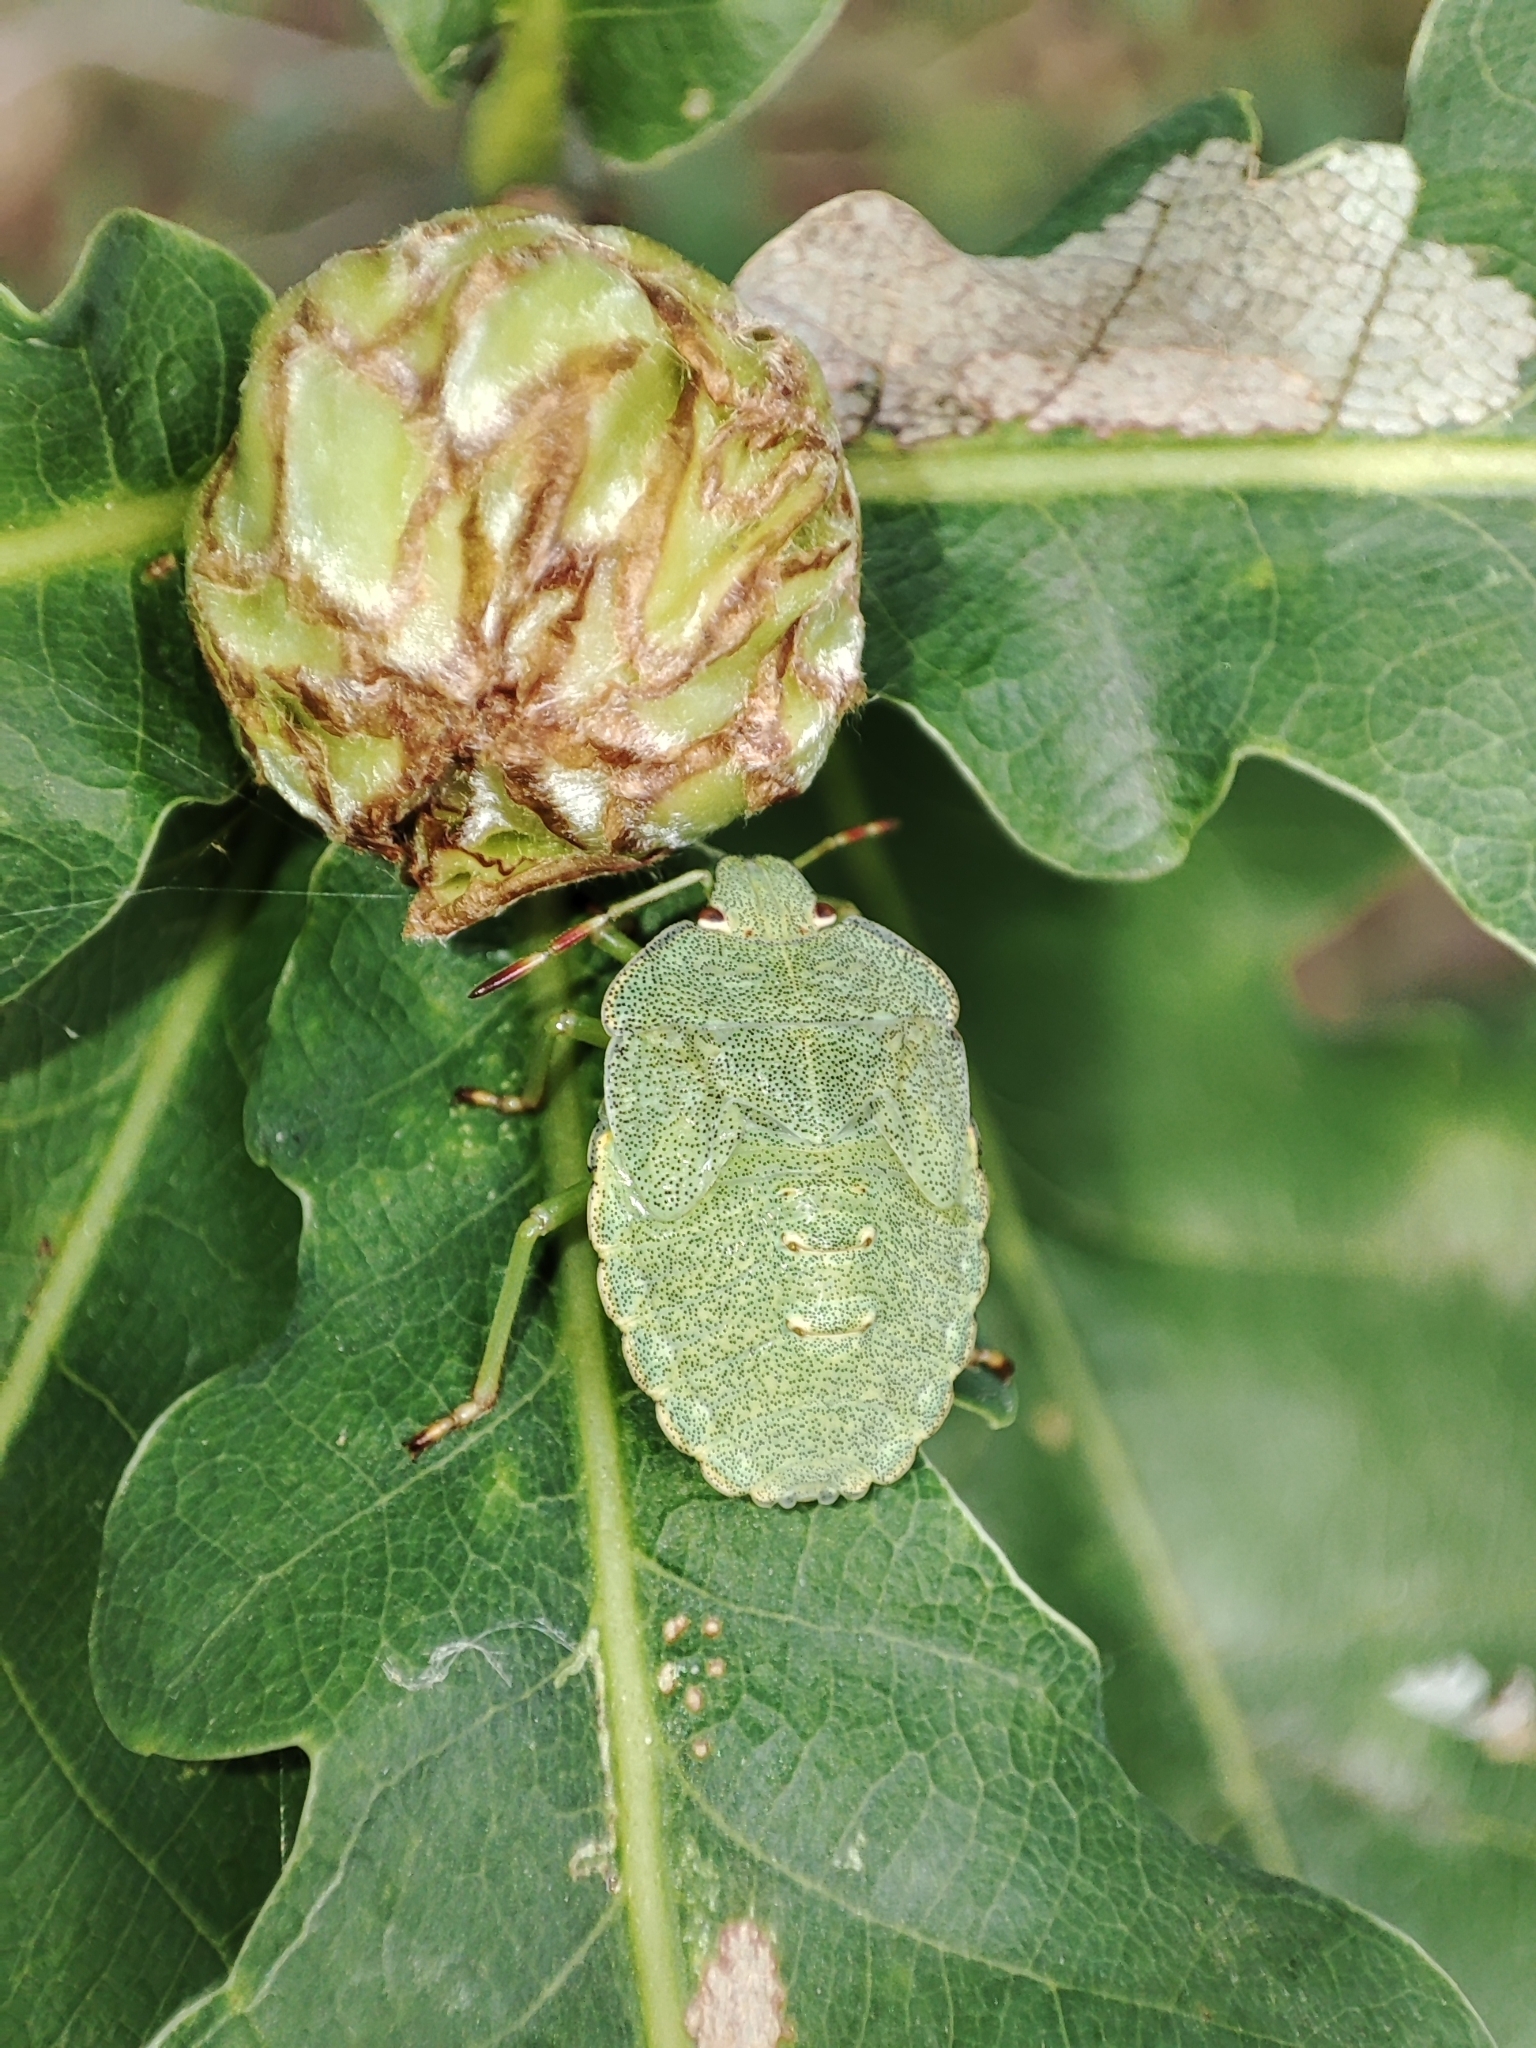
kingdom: Animalia
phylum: Arthropoda
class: Insecta
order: Hemiptera
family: Pentatomidae
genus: Palomena
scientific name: Palomena prasina
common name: Green shieldbug
